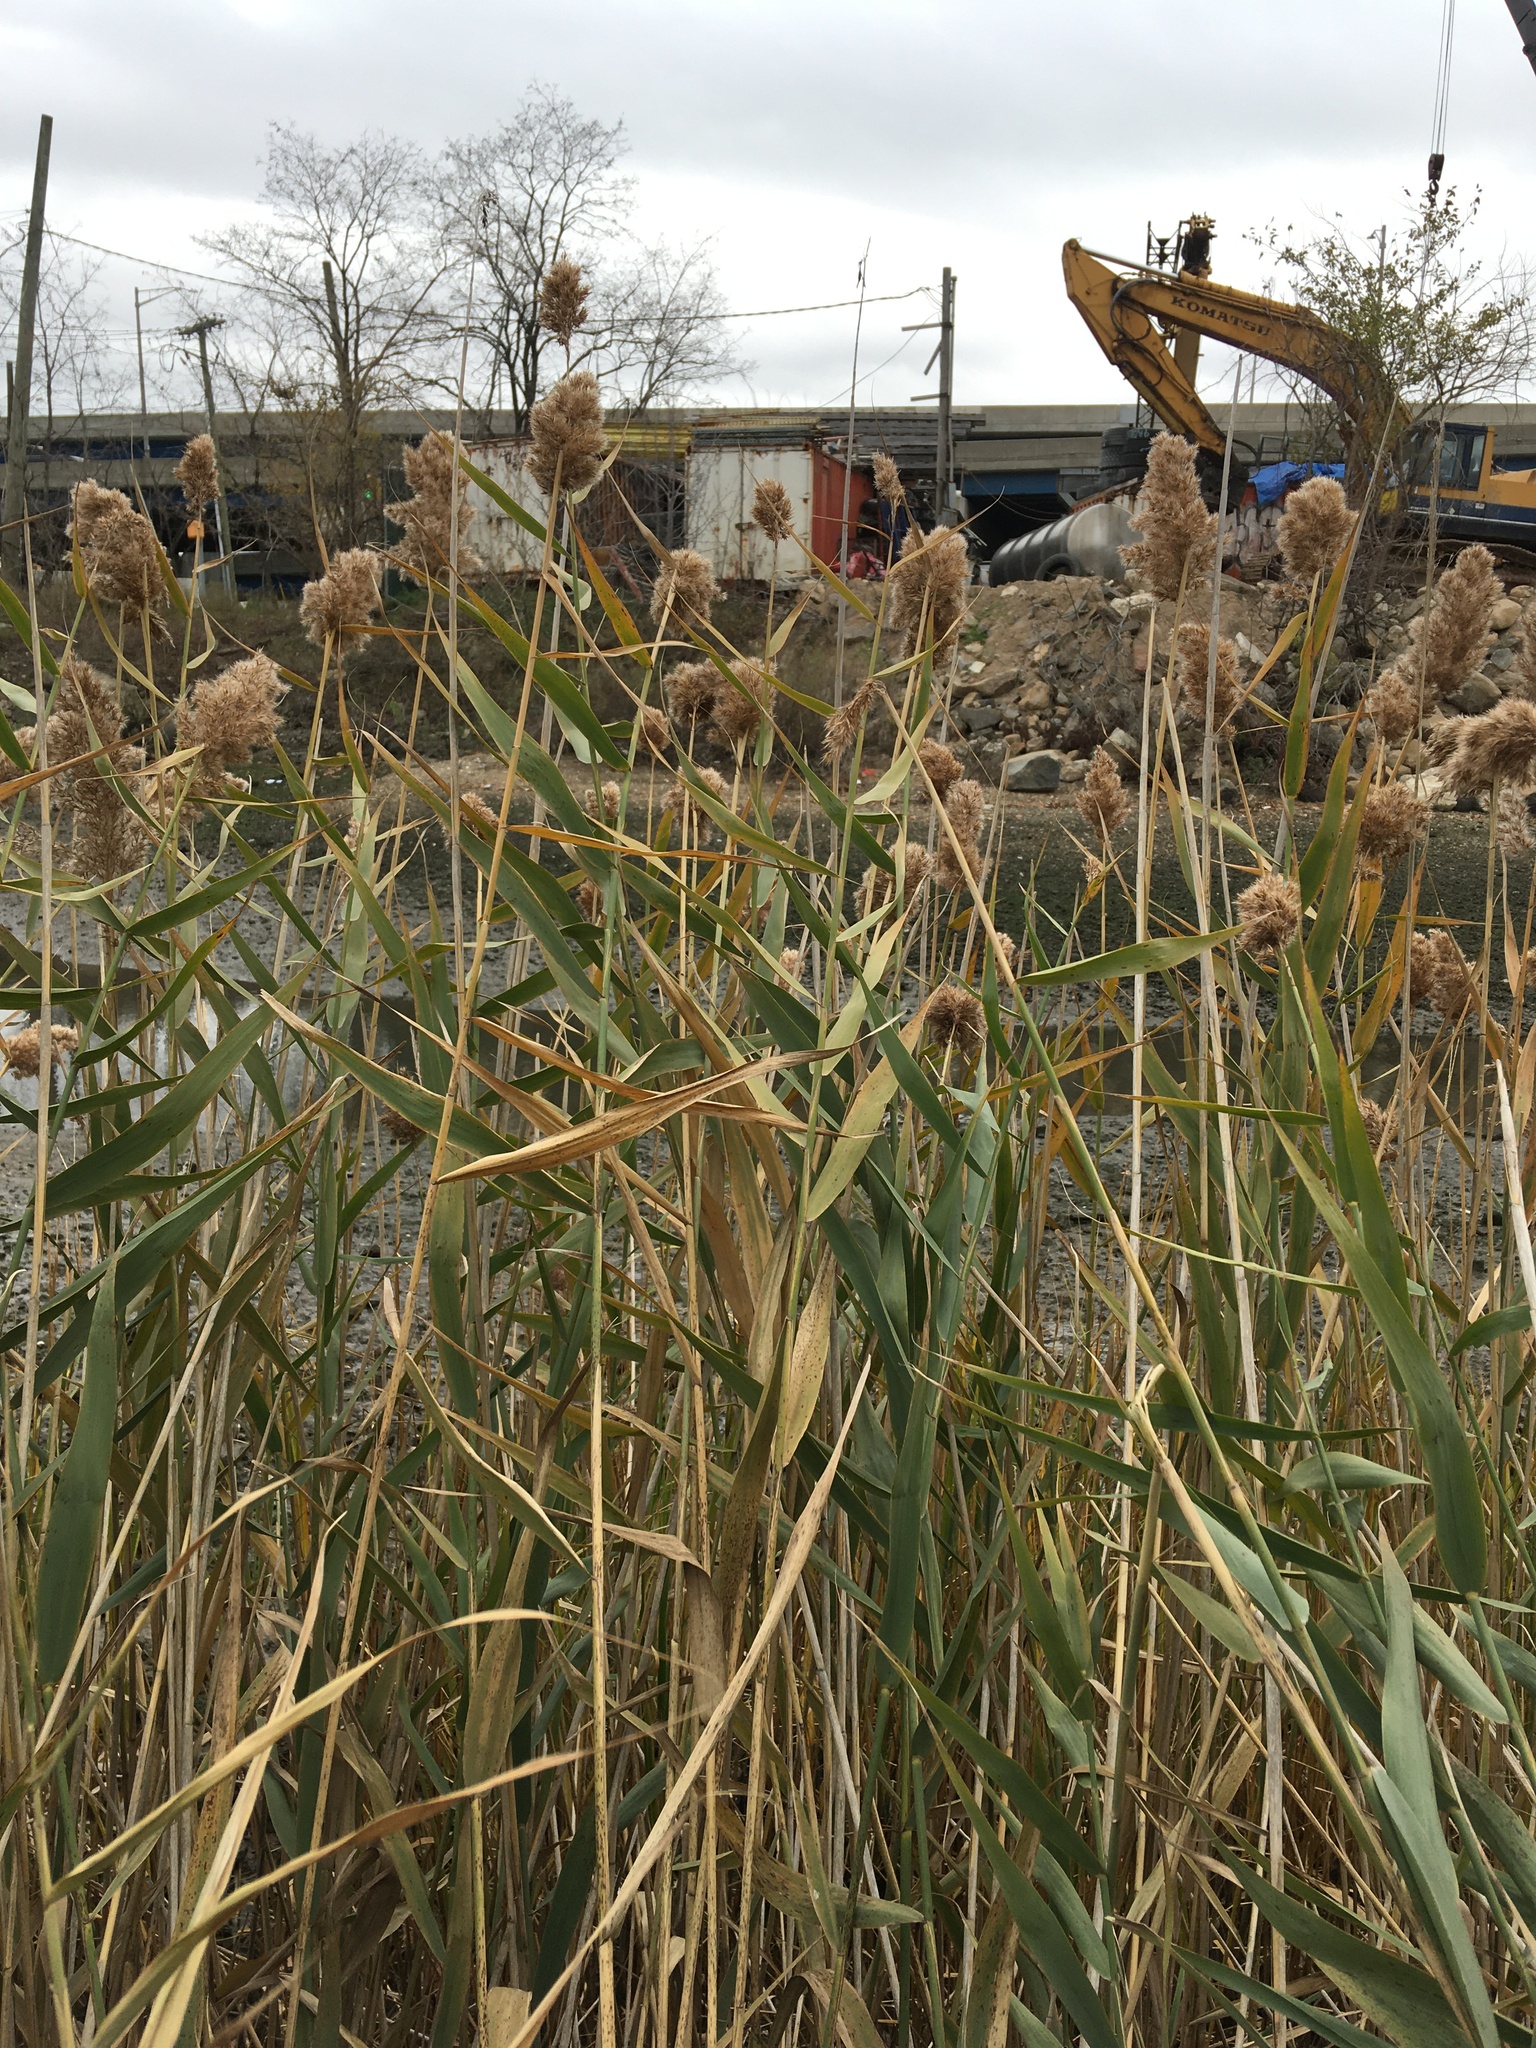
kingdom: Plantae
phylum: Tracheophyta
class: Liliopsida
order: Poales
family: Poaceae
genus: Phragmites
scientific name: Phragmites australis
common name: Common reed
